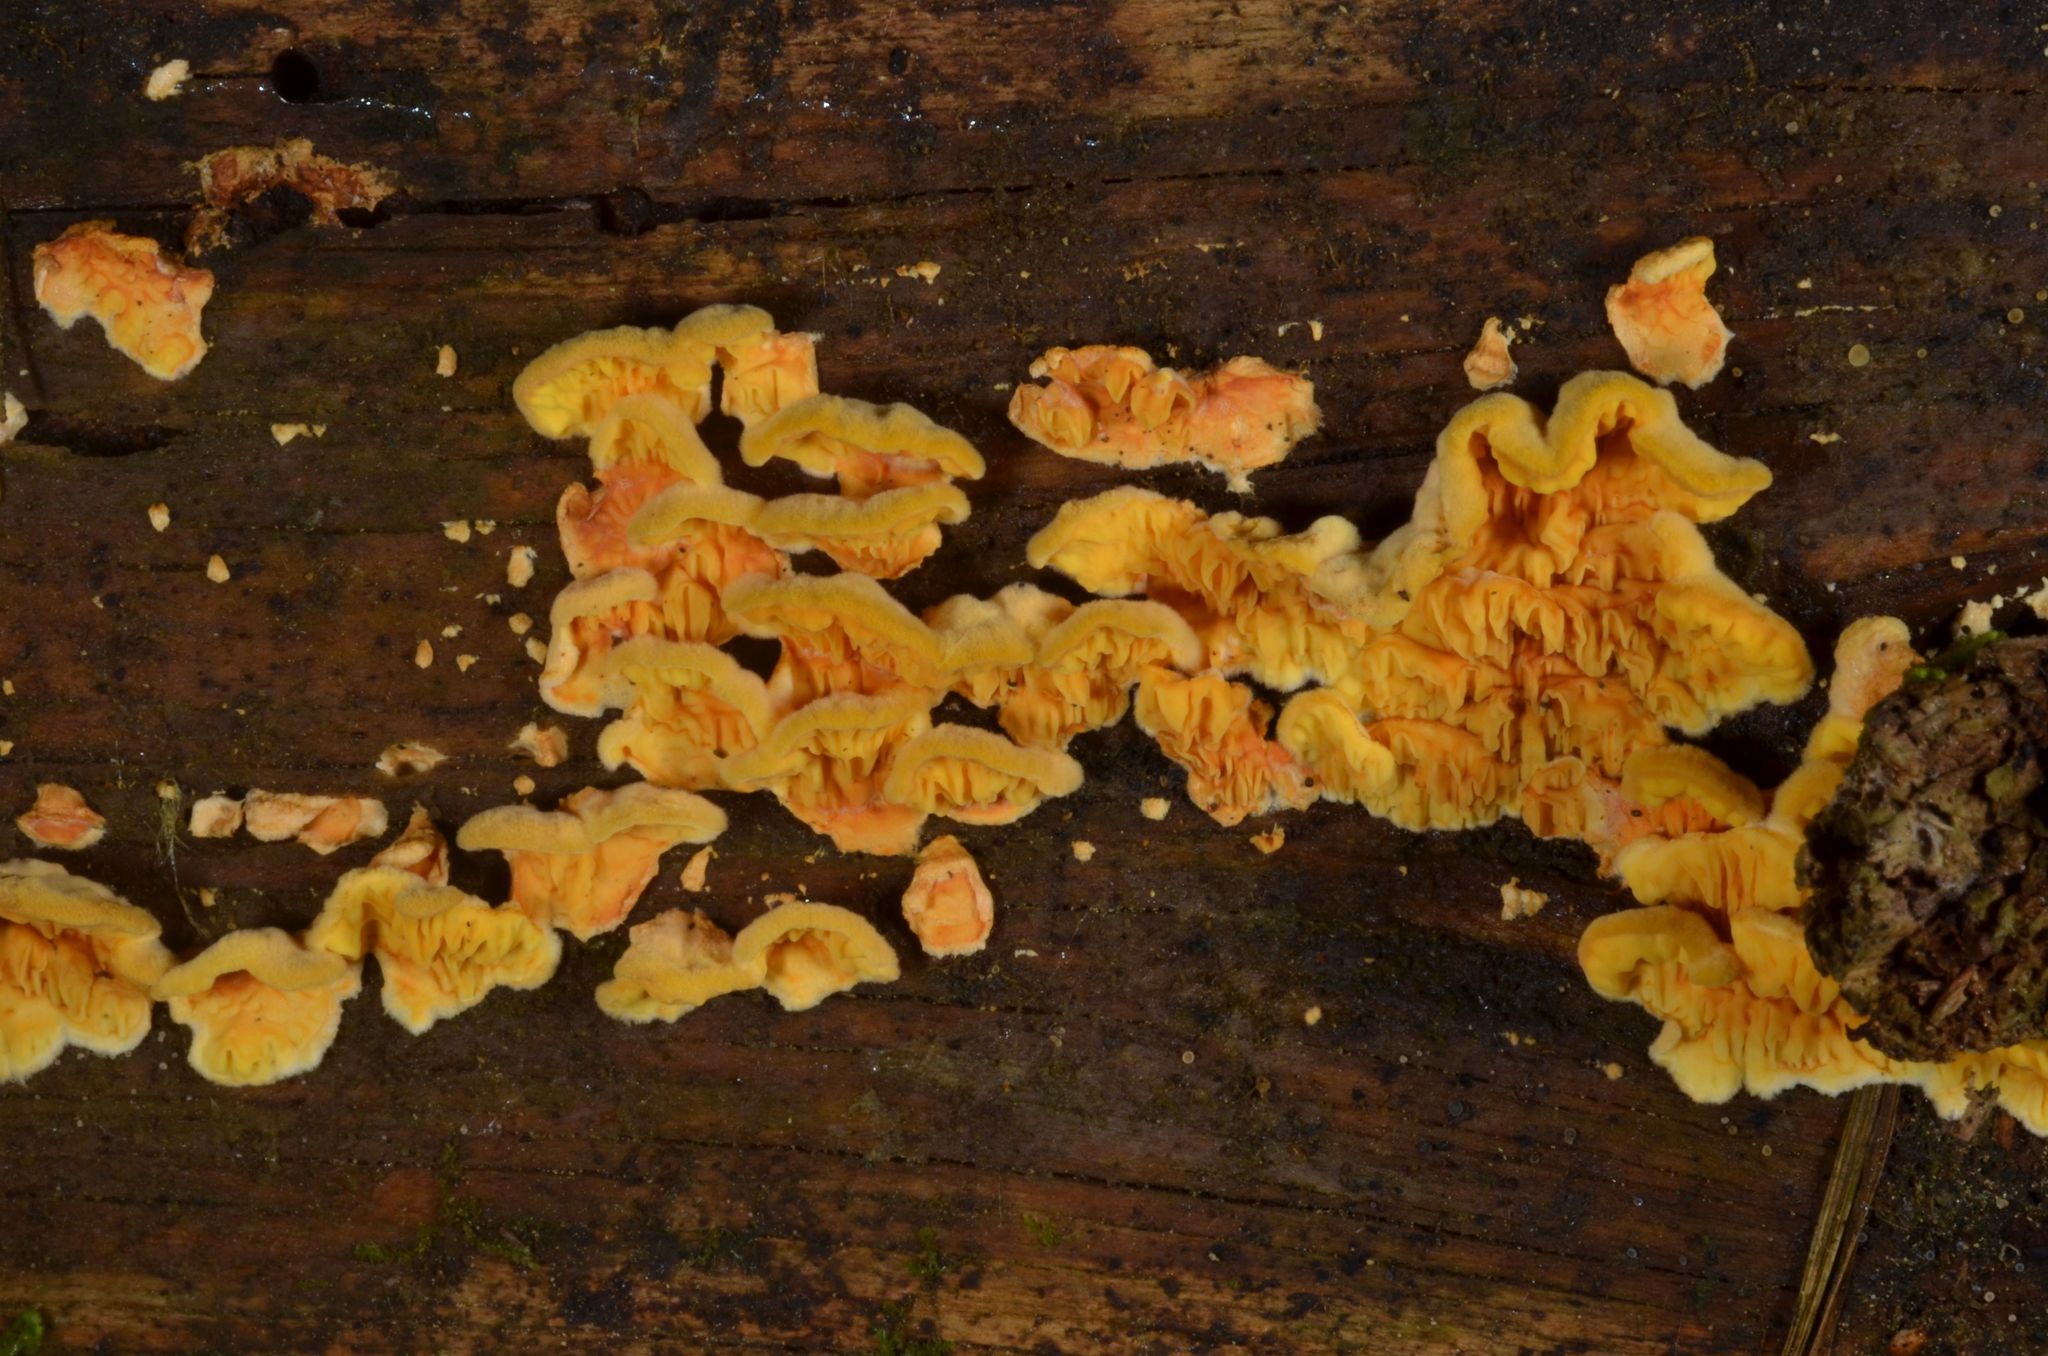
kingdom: Fungi
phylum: Basidiomycota
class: Agaricomycetes
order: Boletales
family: Tapinellaceae
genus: Pseudomerulius
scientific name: Pseudomerulius aureus
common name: Orange netcrust
